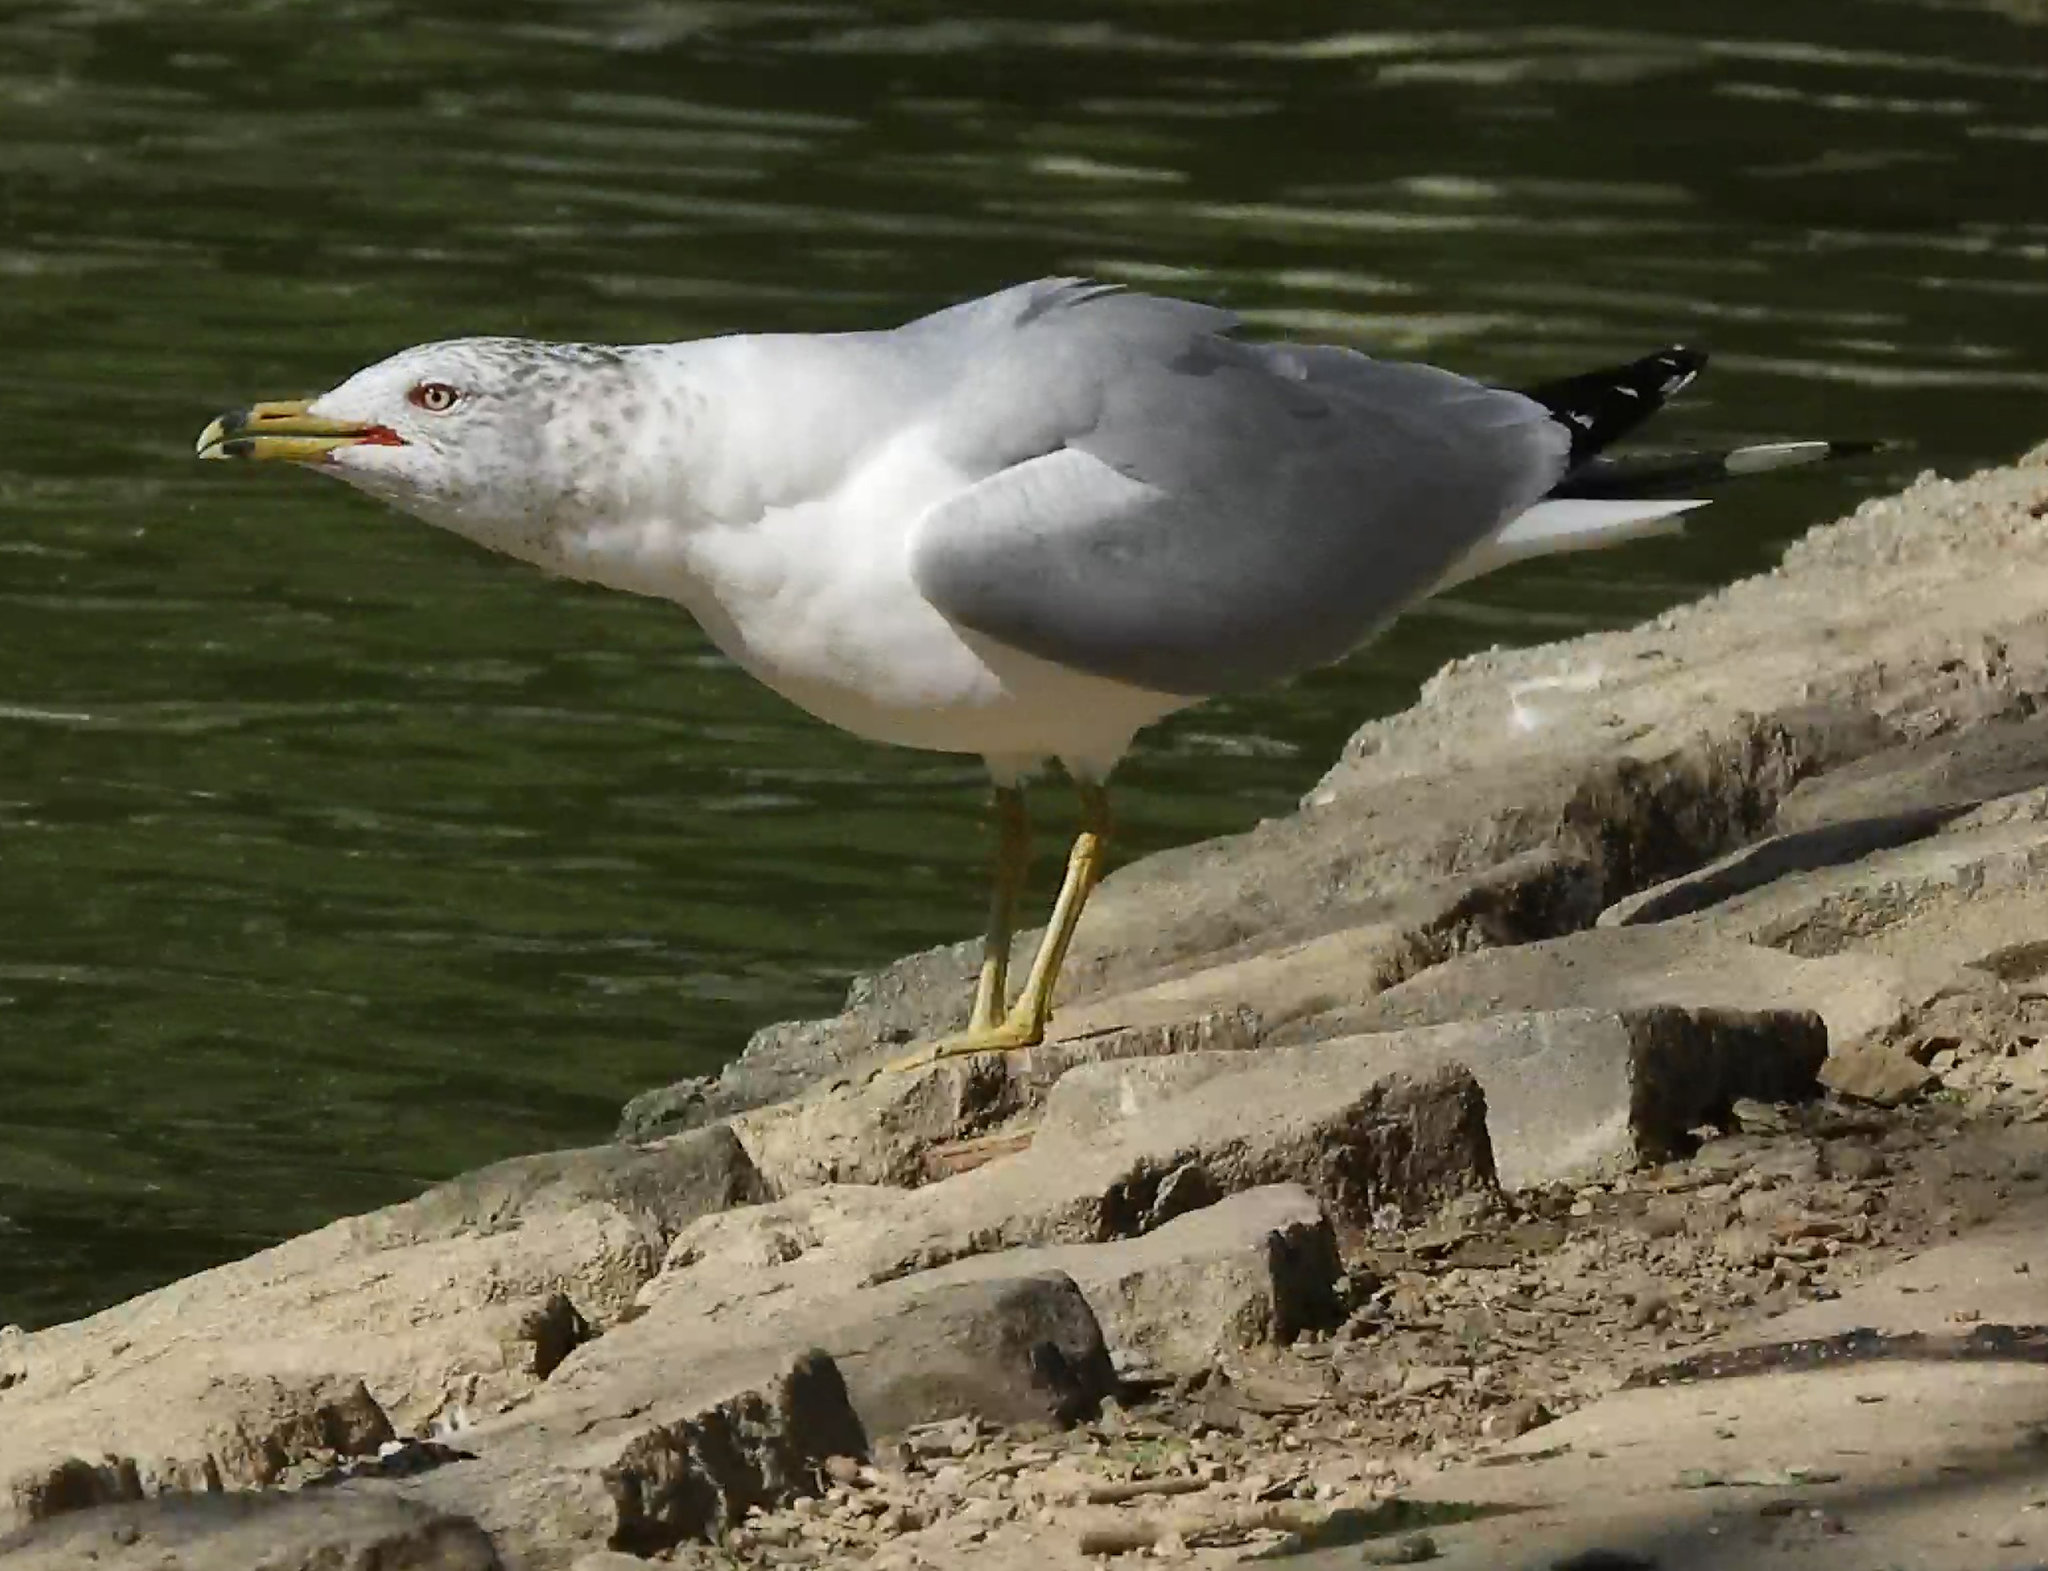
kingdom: Animalia
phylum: Chordata
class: Aves
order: Charadriiformes
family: Laridae
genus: Larus
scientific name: Larus delawarensis
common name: Ring-billed gull
